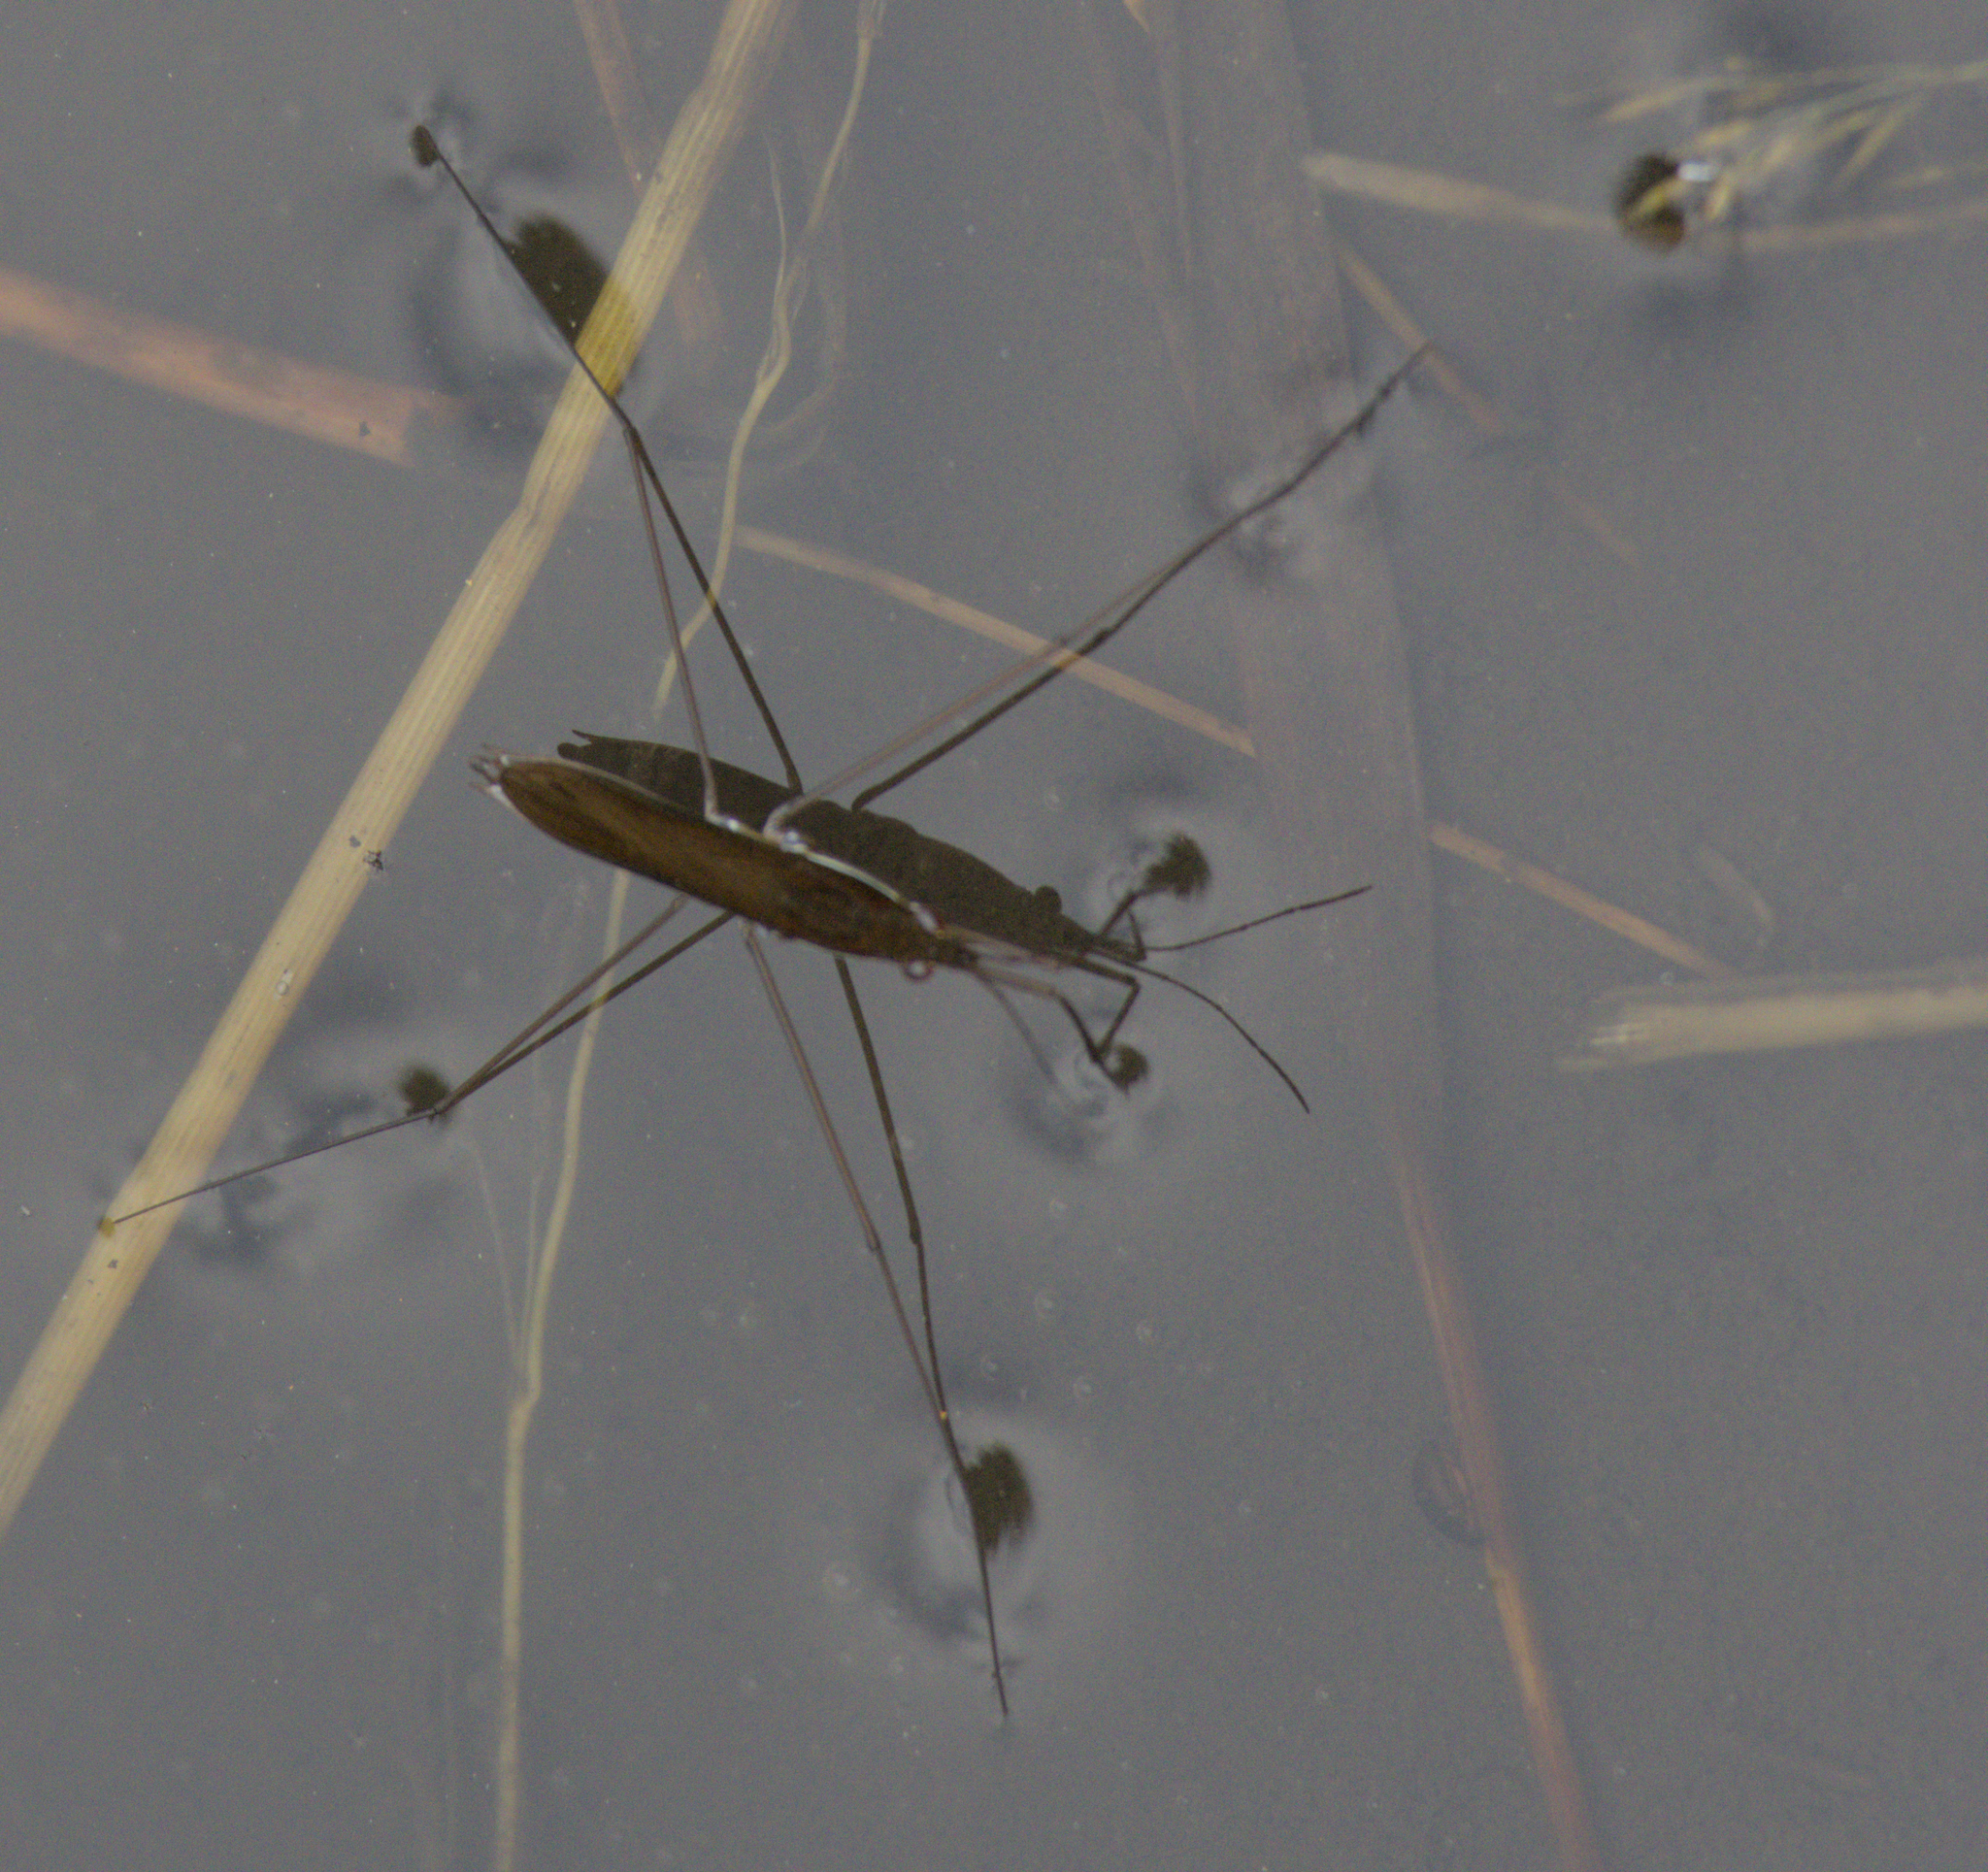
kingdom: Animalia
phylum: Arthropoda
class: Insecta
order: Hemiptera
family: Gerridae
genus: Limnoporus
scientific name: Limnoporus dissortis
